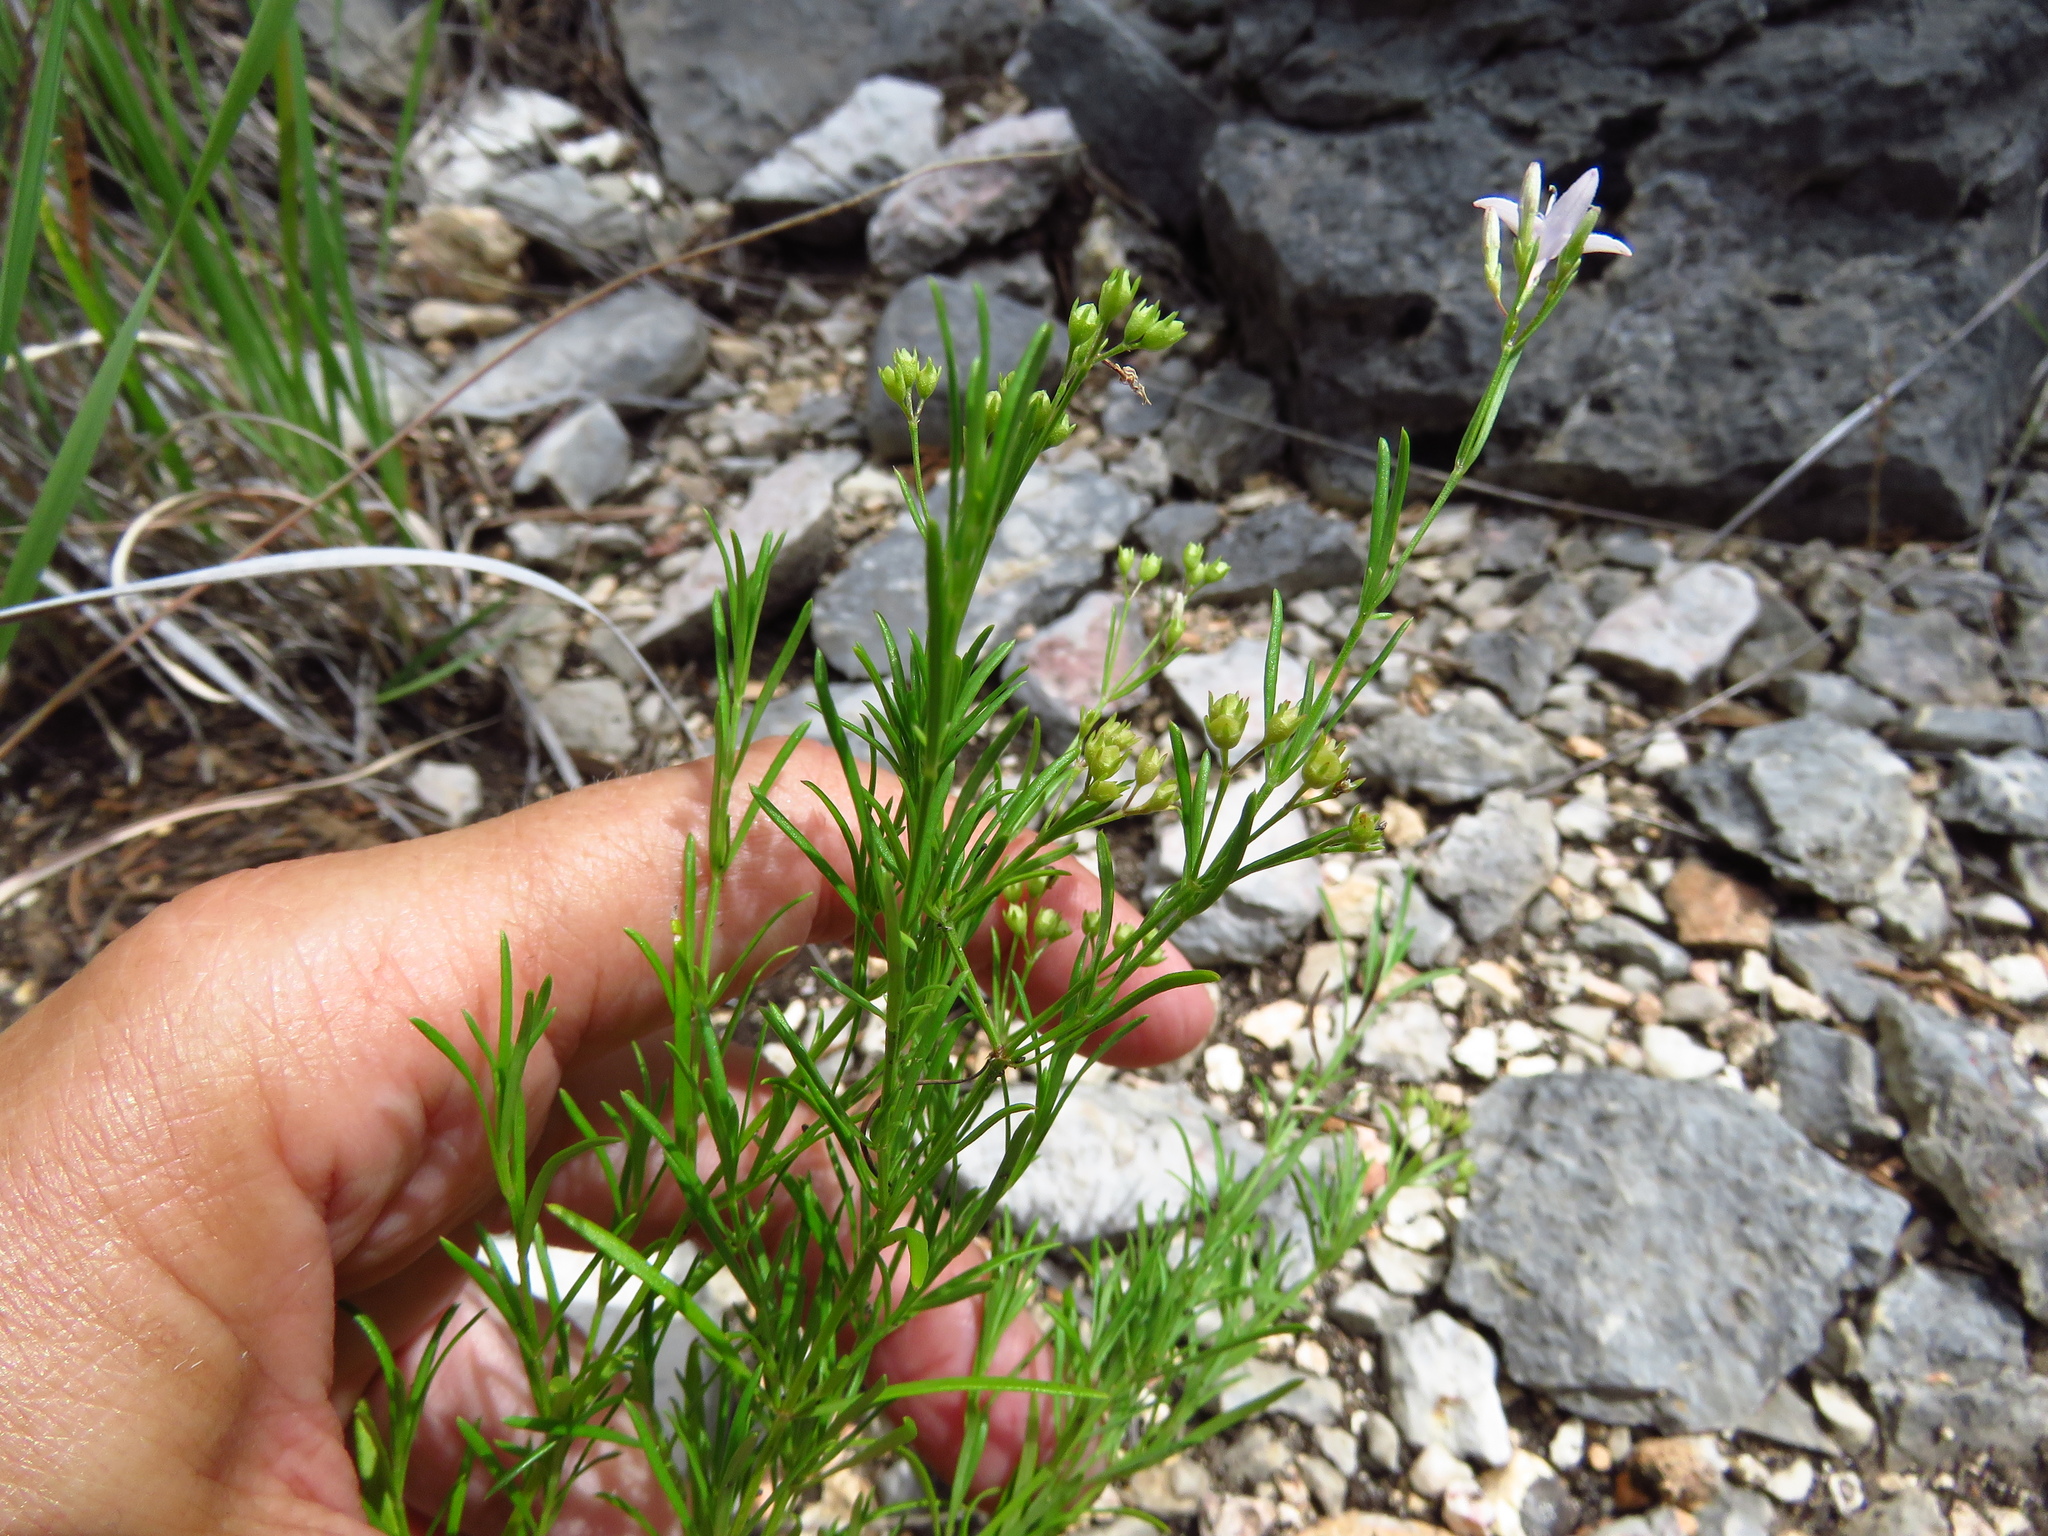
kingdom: Plantae
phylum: Tracheophyta
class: Magnoliopsida
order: Gentianales
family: Rubiaceae
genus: Stenaria
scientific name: Stenaria nigricans
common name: Diamondflowers
